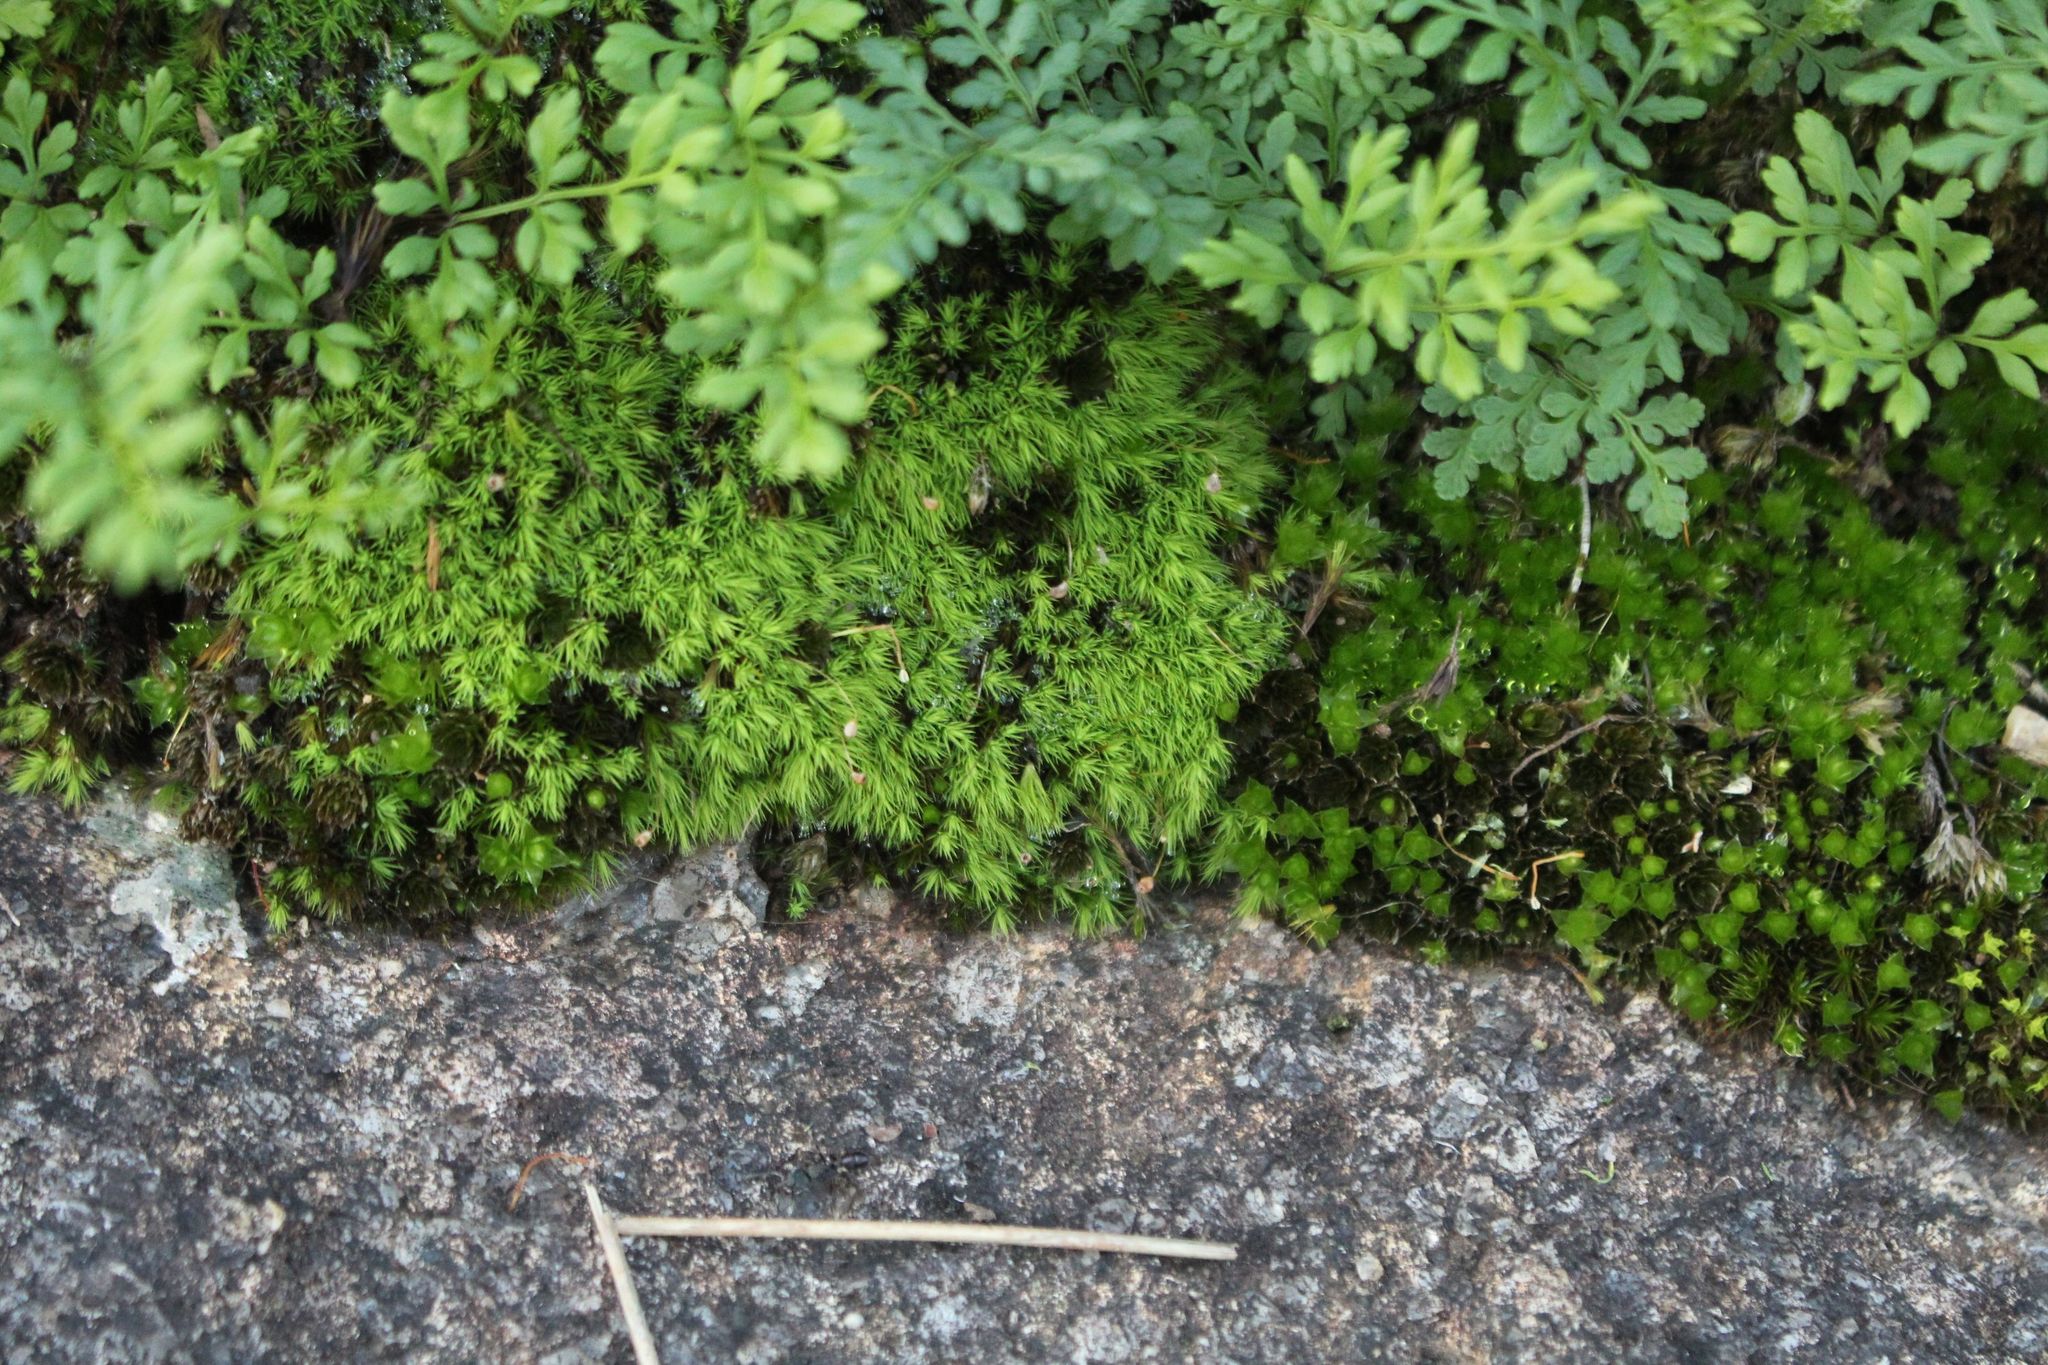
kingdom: Plantae
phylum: Tracheophyta
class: Polypodiopsida
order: Polypodiales
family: Pteridaceae
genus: Cheilanthes
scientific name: Cheilanthes austrotenuifolia
